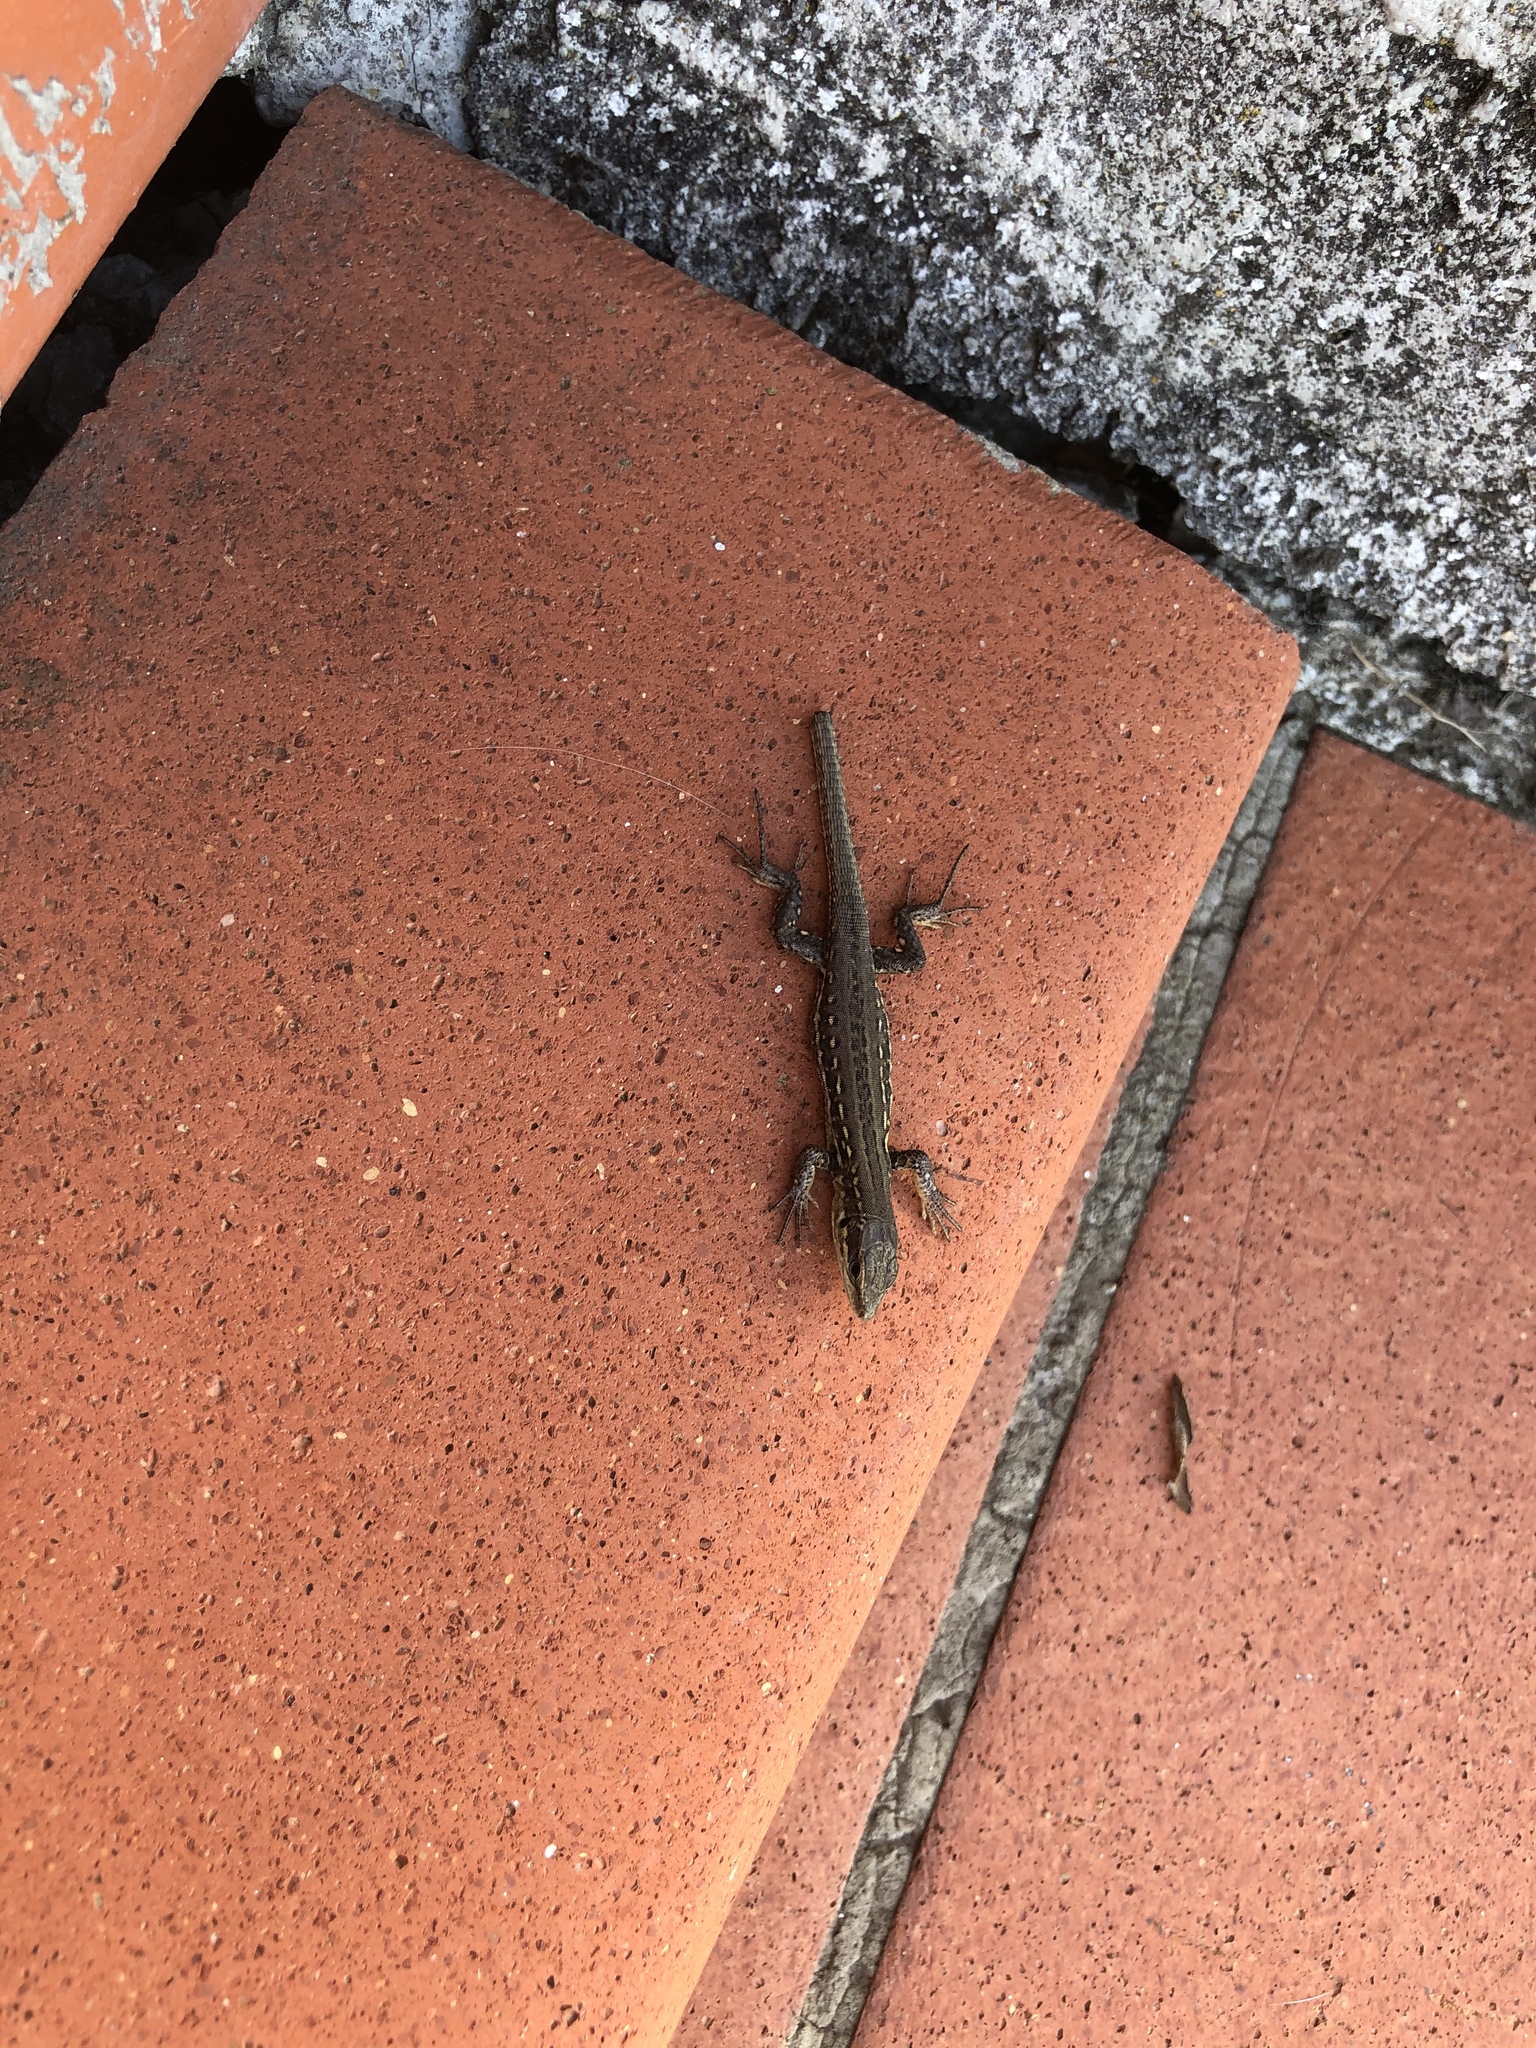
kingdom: Animalia
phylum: Chordata
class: Squamata
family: Lacertidae
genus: Podarcis
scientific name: Podarcis siculus
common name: Italian wall lizard
